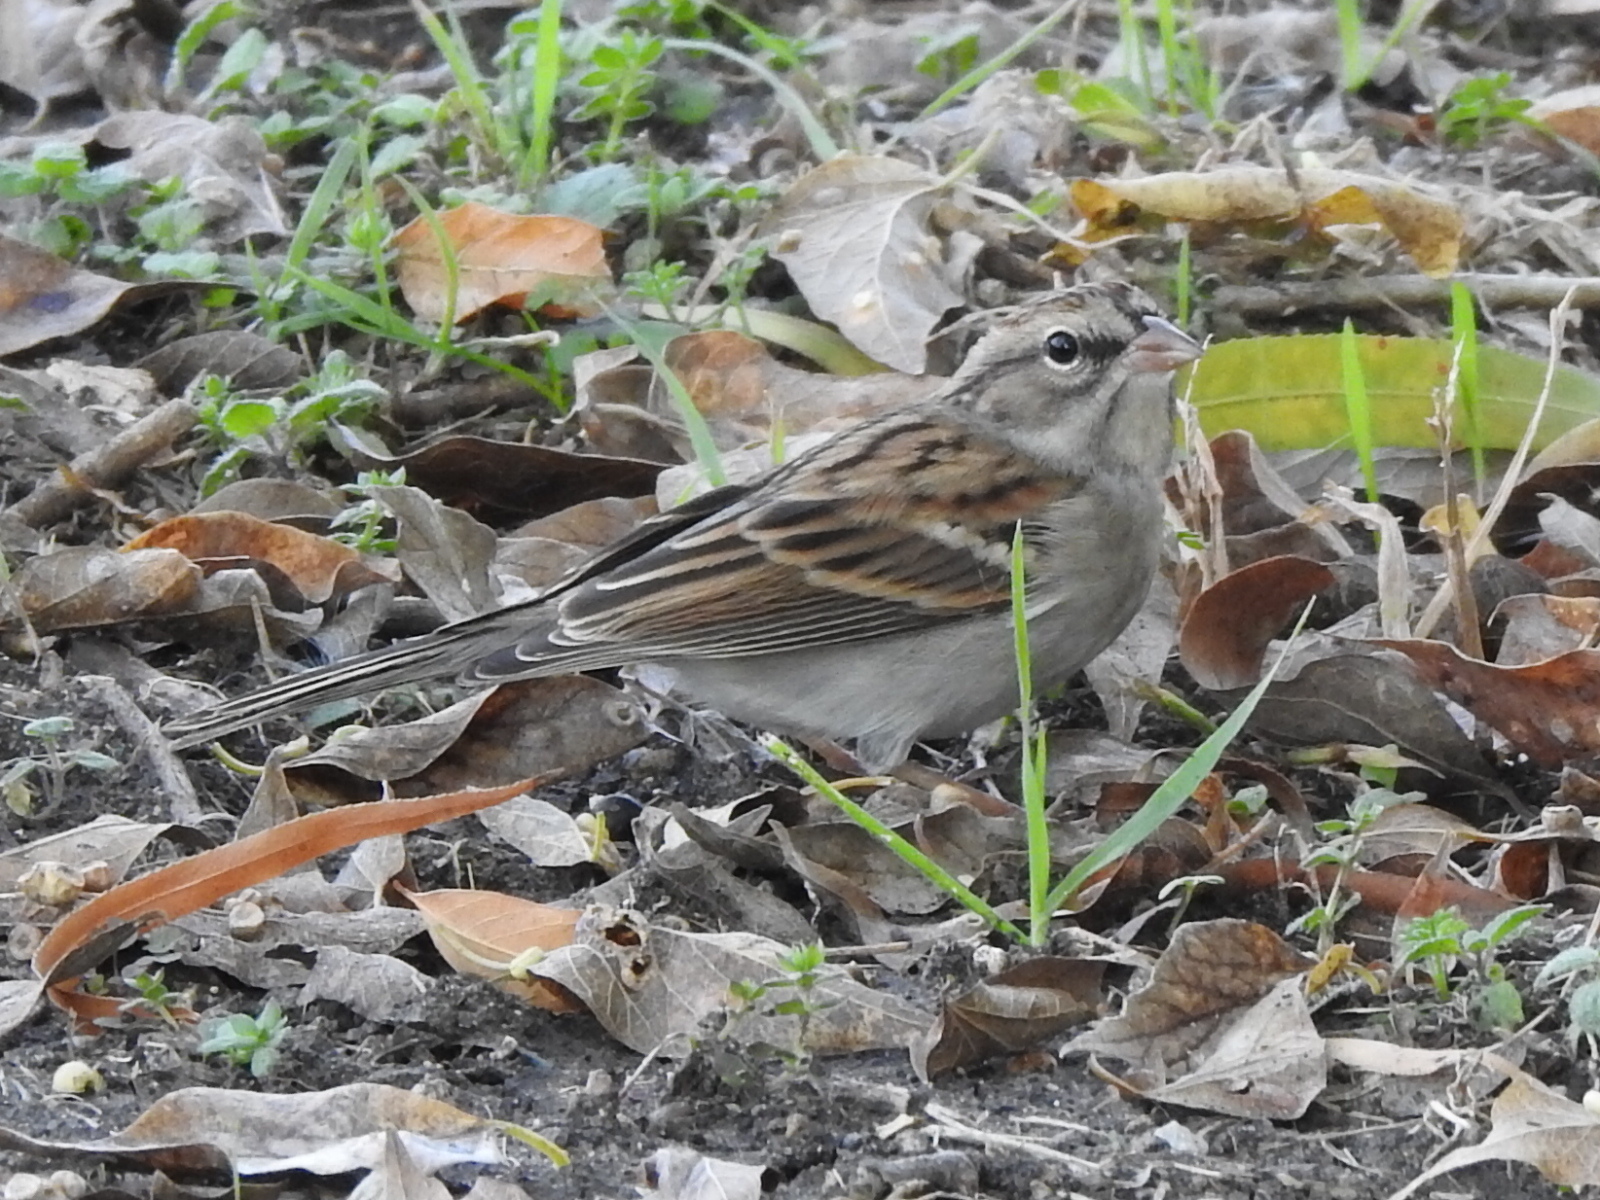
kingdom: Animalia
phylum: Chordata
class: Aves
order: Passeriformes
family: Passerellidae
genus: Spizella
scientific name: Spizella passerina
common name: Chipping sparrow
